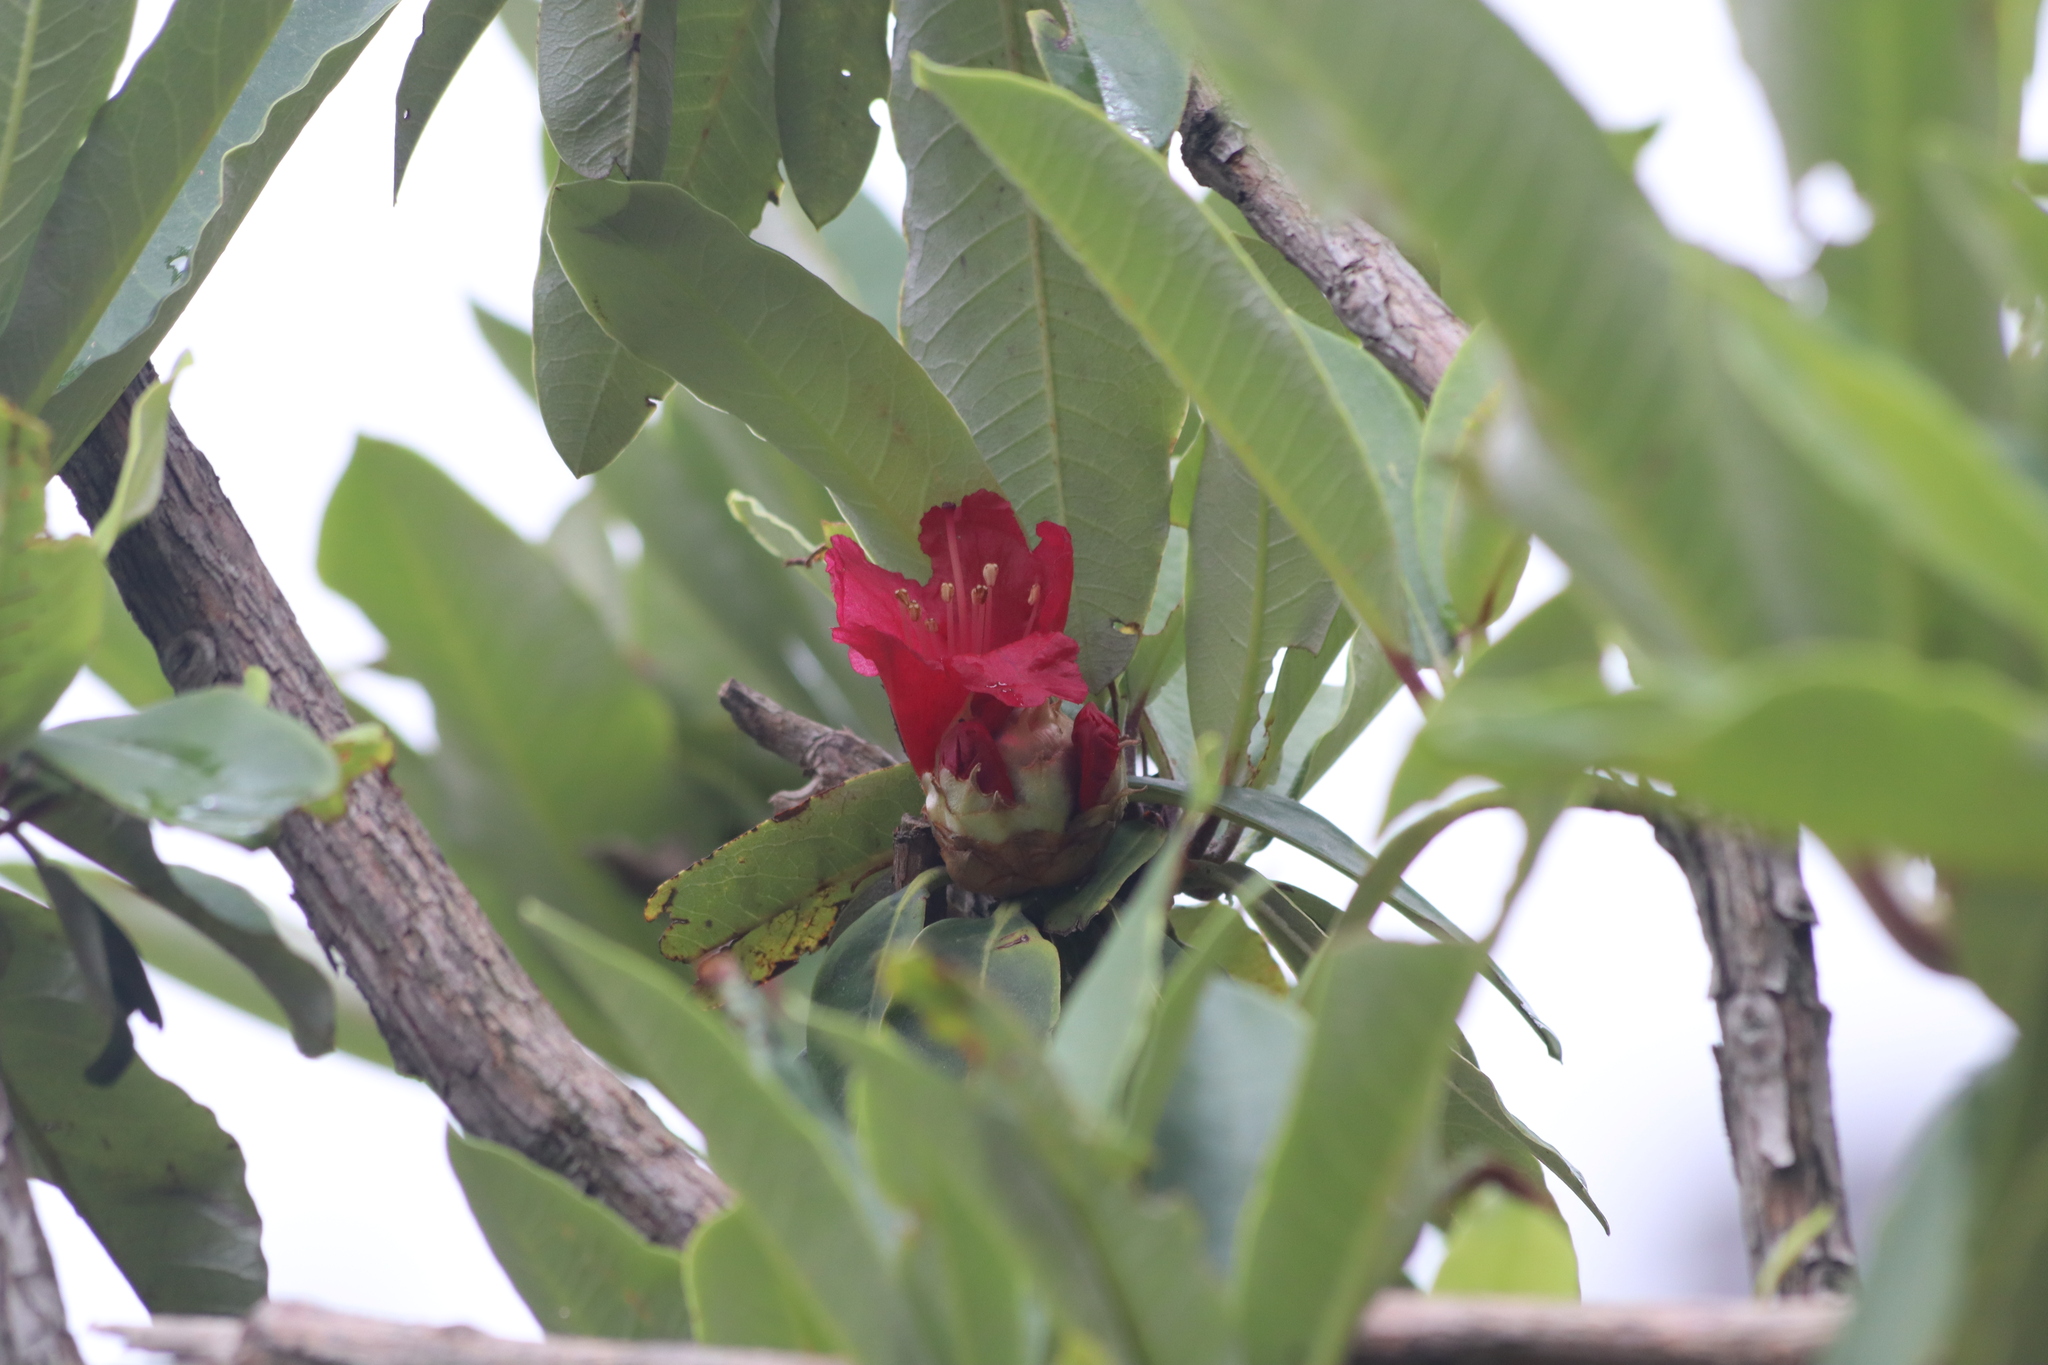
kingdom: Plantae
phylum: Tracheophyta
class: Magnoliopsida
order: Ericales
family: Ericaceae
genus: Rhododendron
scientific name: Rhododendron arboreum
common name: Tree rhododendron
